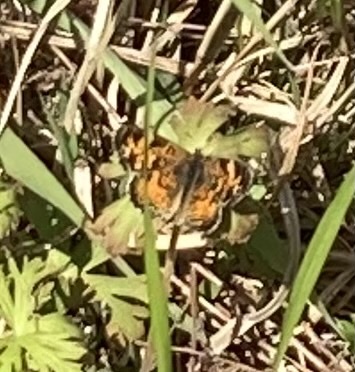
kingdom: Animalia
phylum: Arthropoda
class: Insecta
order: Lepidoptera
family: Nymphalidae
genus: Phyciodes
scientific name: Phyciodes tharos
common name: Pearl crescent
